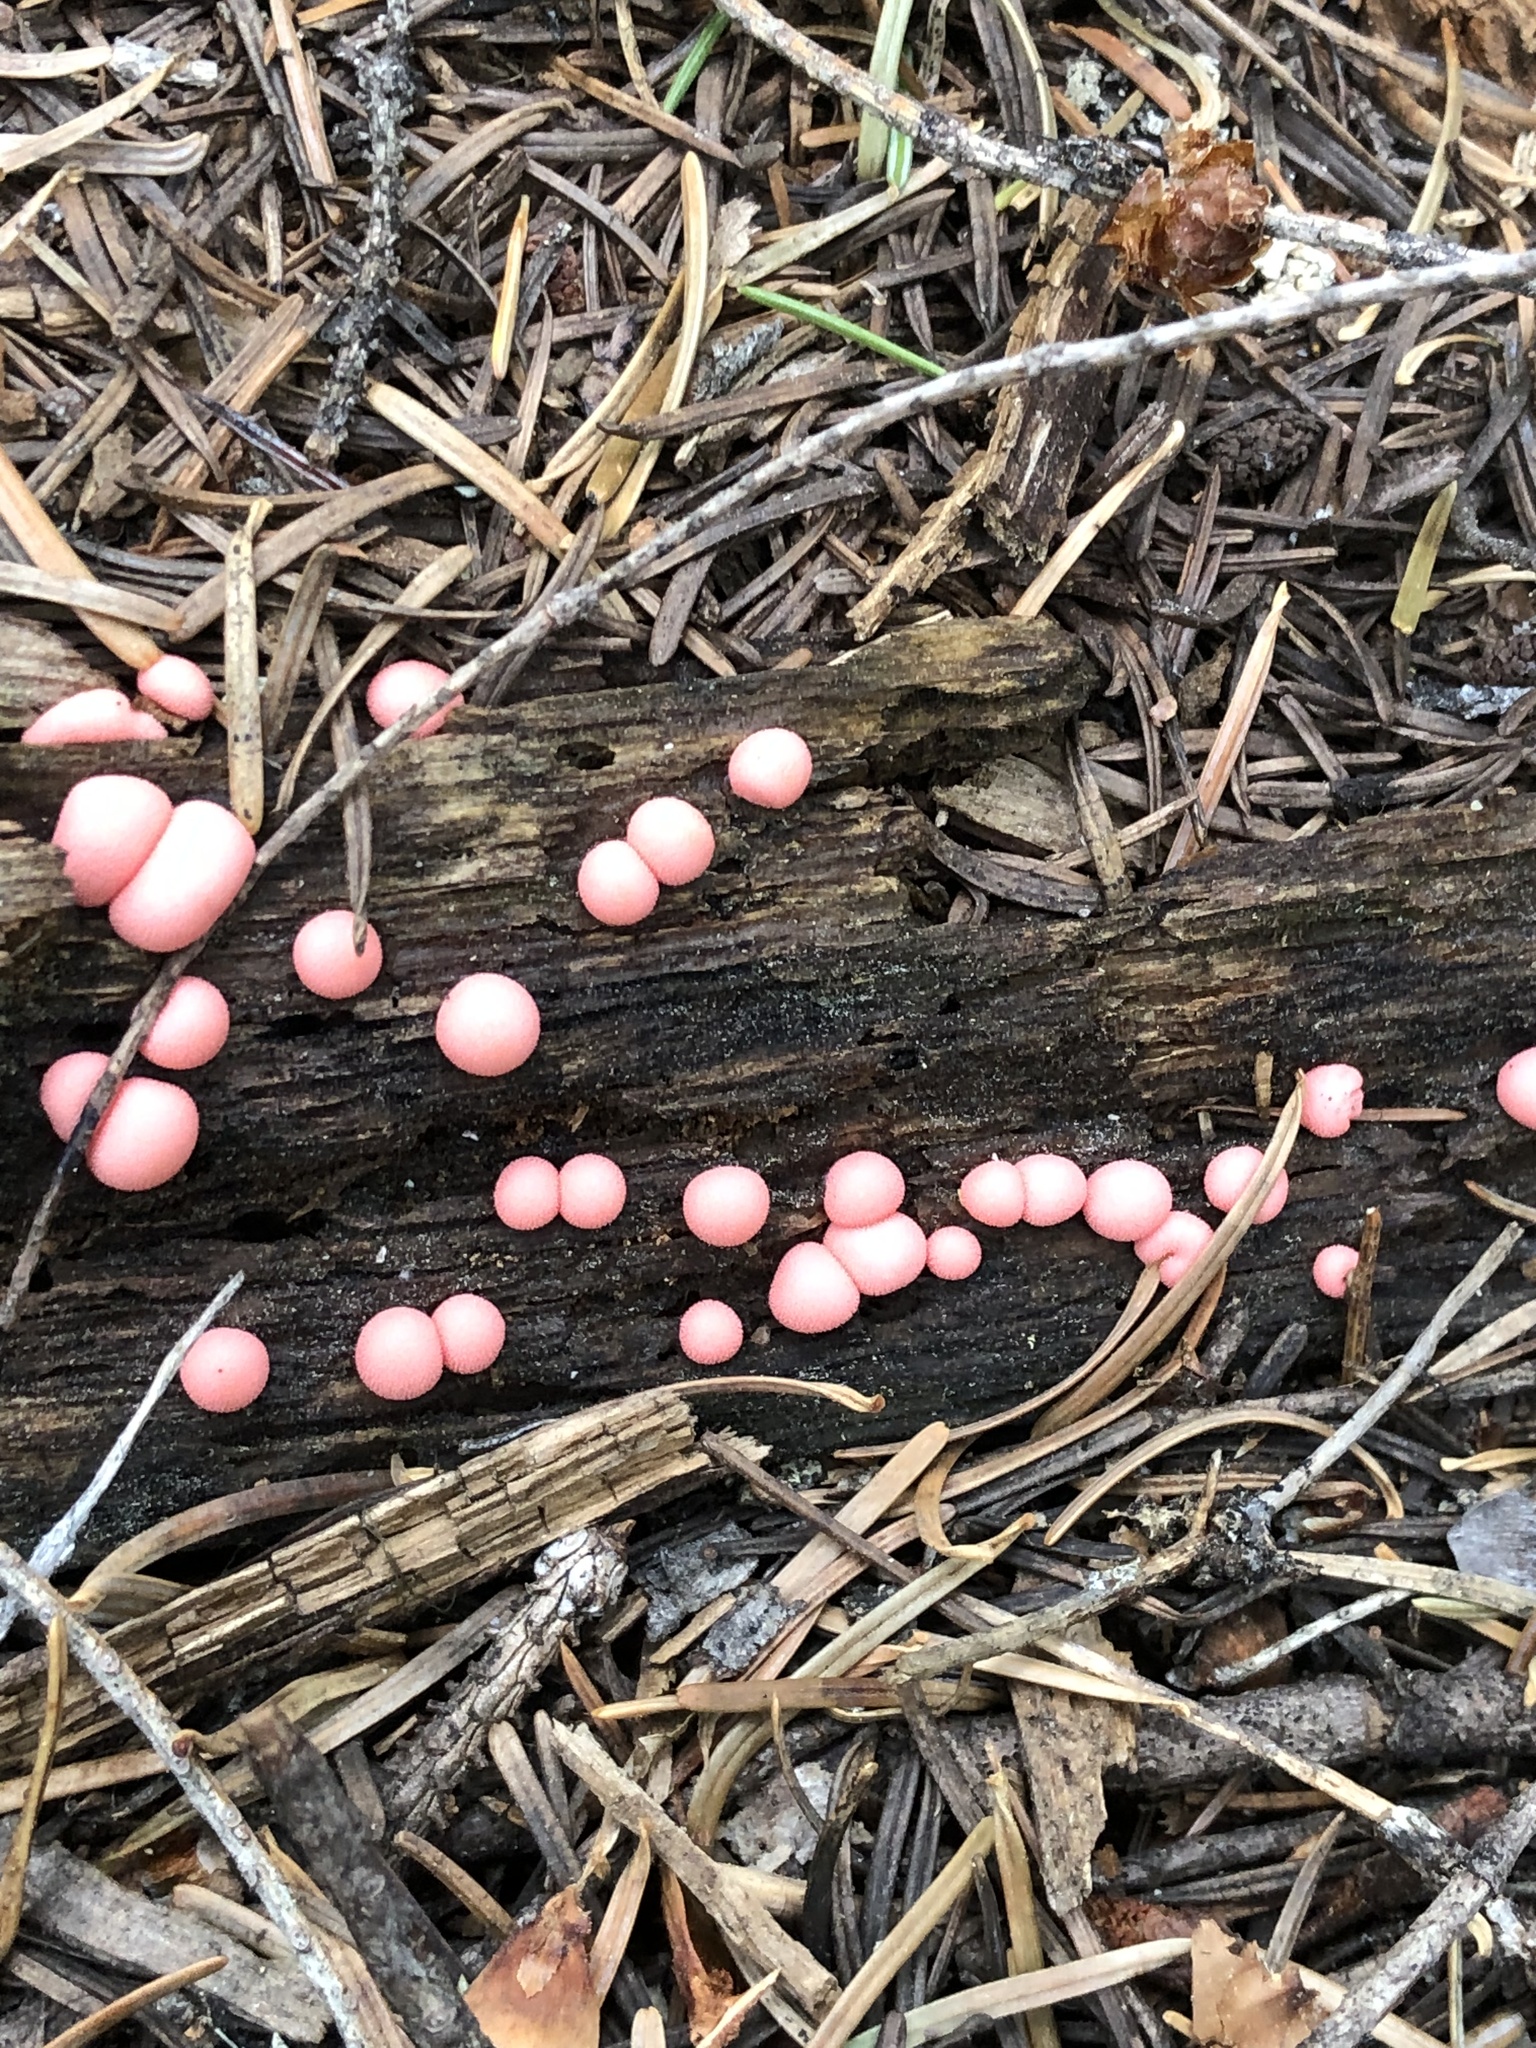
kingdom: Protozoa
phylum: Mycetozoa
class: Myxomycetes
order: Cribrariales
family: Tubiferaceae
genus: Lycogala
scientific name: Lycogala epidendrum
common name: Wolf's milk
